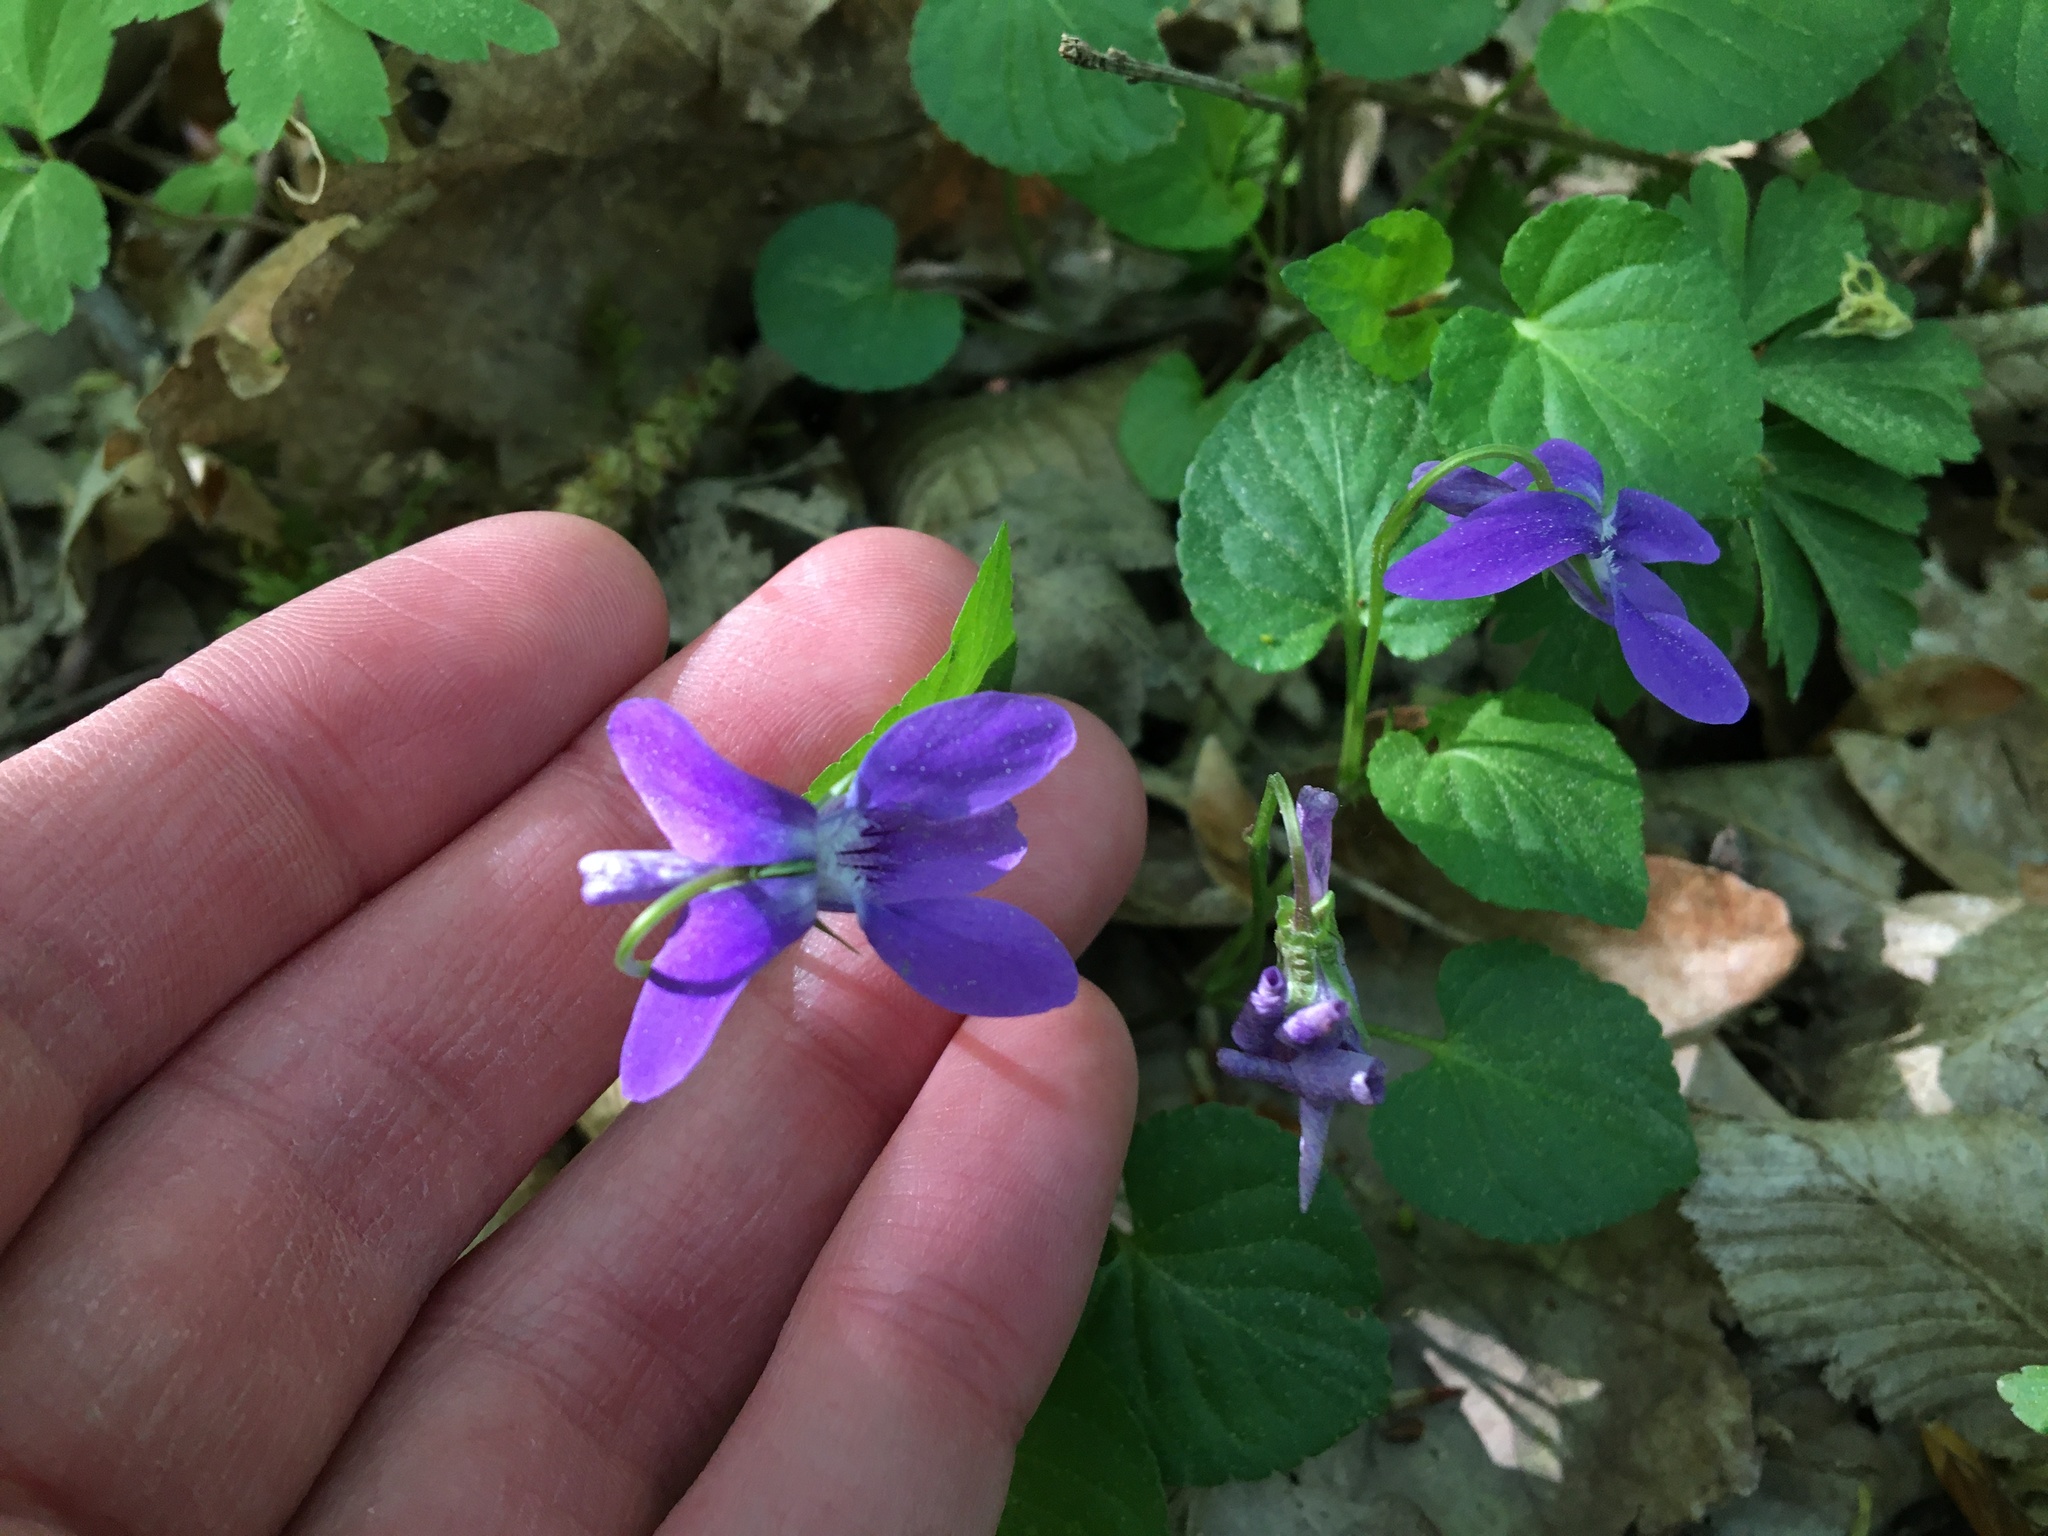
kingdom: Plantae
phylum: Tracheophyta
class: Magnoliopsida
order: Malpighiales
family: Violaceae
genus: Viola
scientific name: Viola reichenbachiana
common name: Early dog-violet
